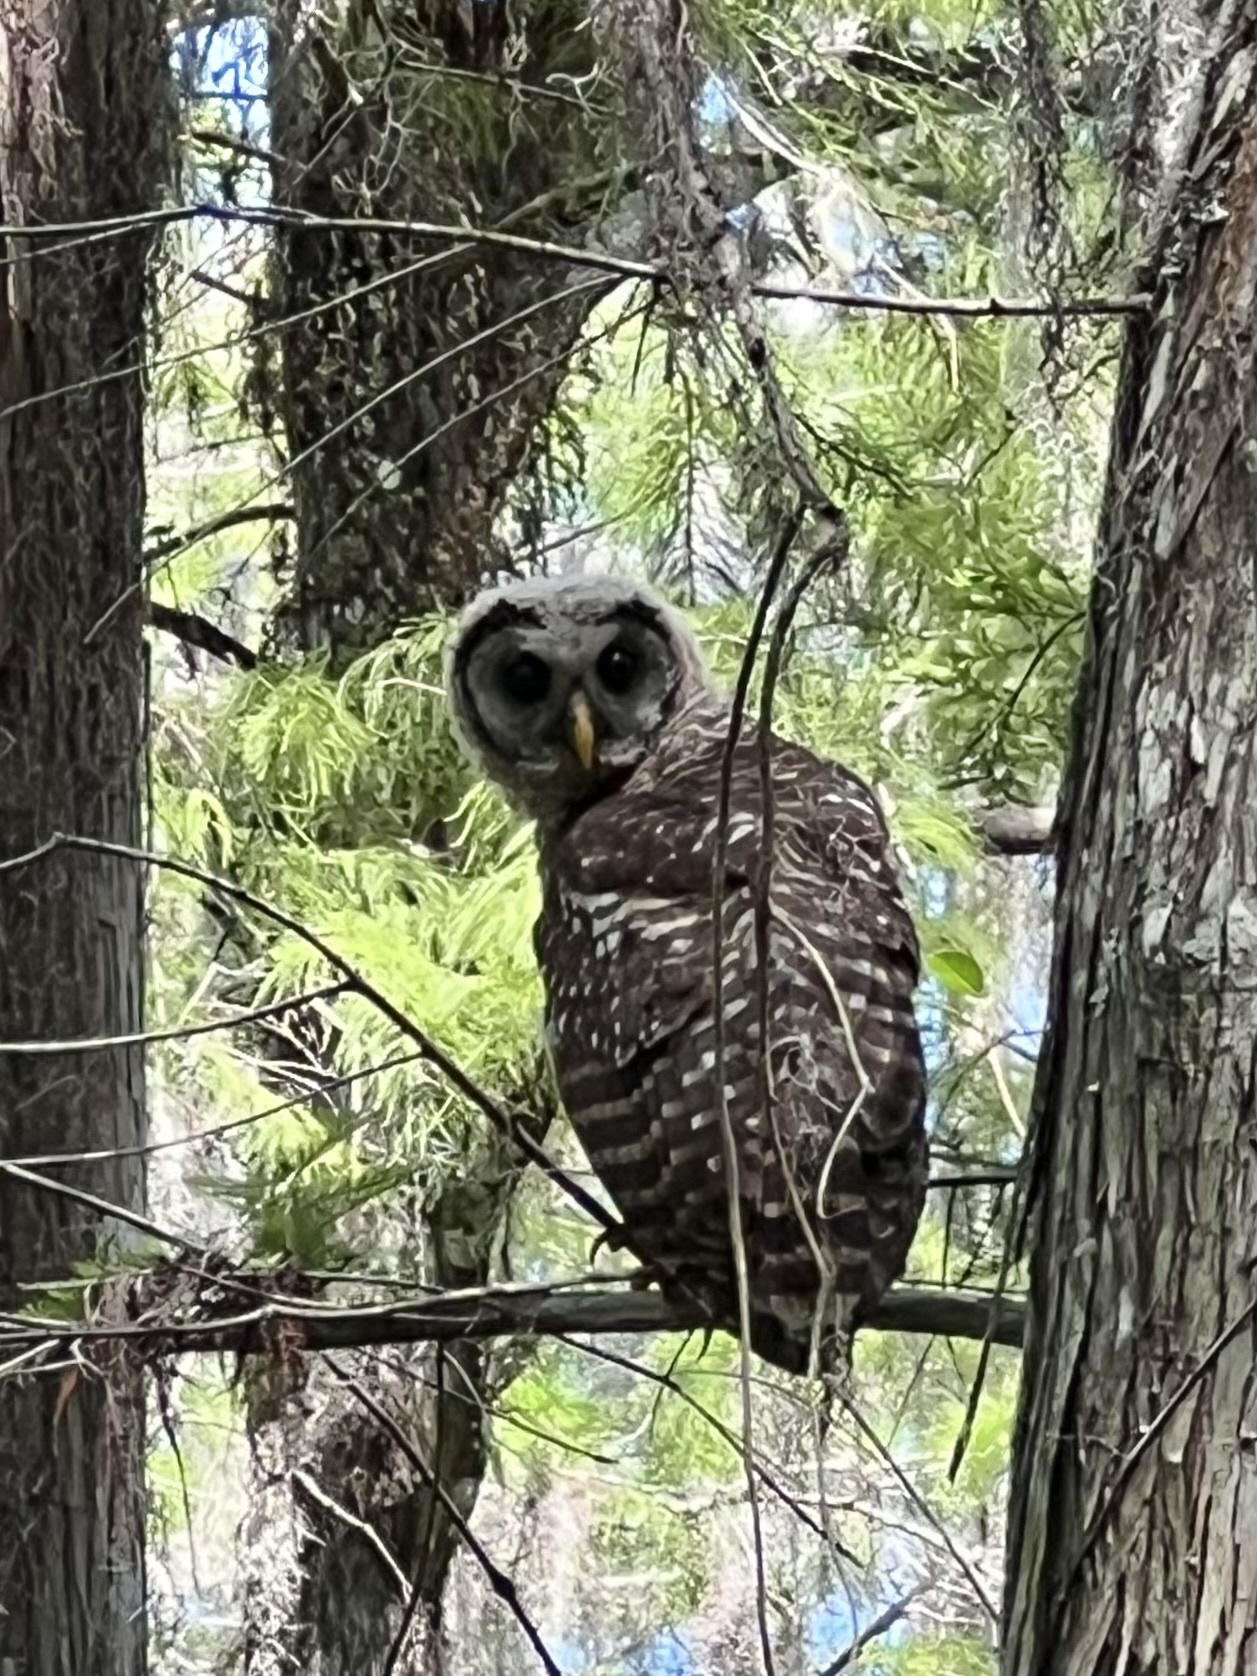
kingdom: Animalia
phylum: Chordata
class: Aves
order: Strigiformes
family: Strigidae
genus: Strix
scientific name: Strix varia
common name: Barred owl
